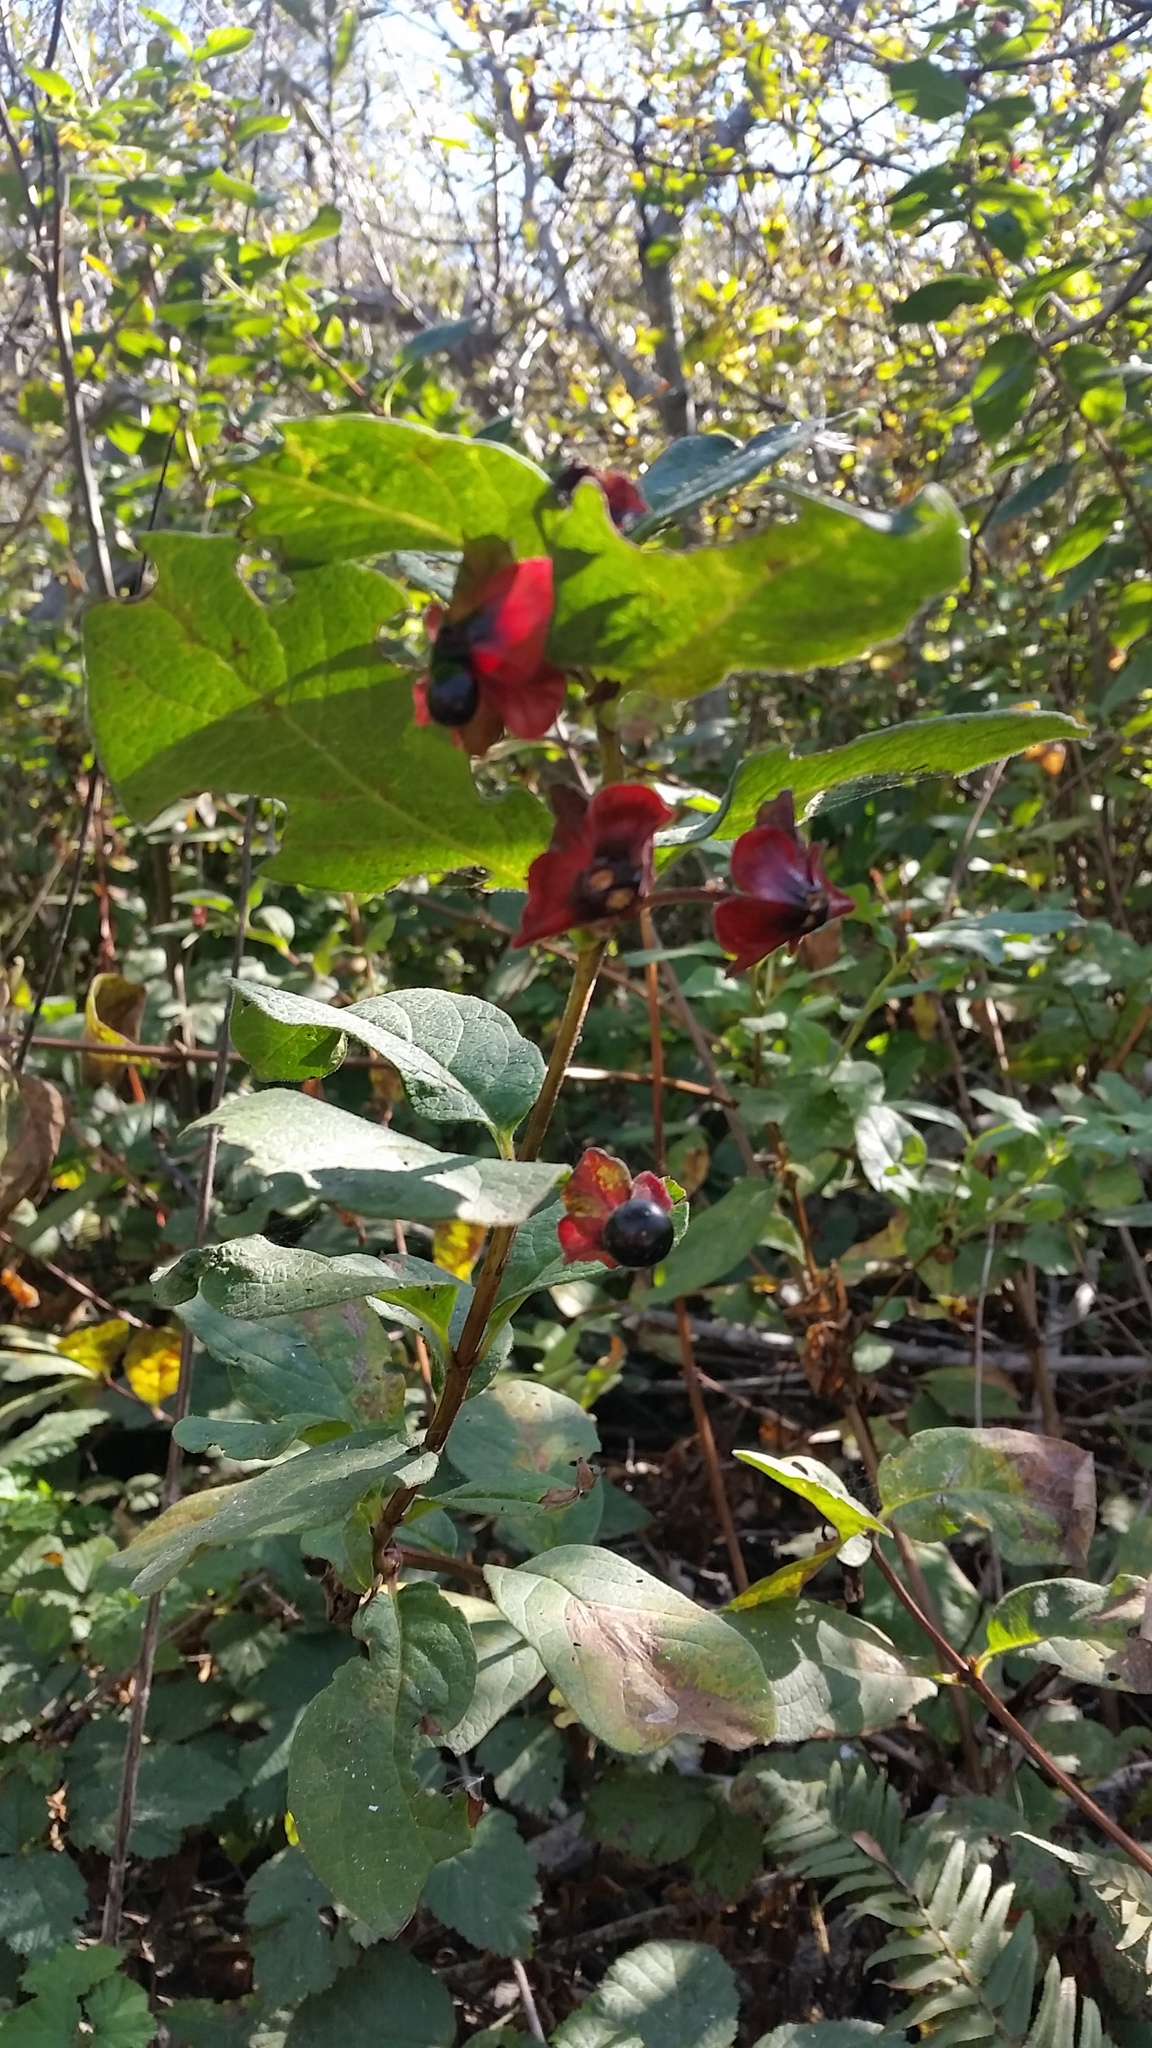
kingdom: Plantae
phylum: Tracheophyta
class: Magnoliopsida
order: Dipsacales
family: Caprifoliaceae
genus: Lonicera
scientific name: Lonicera involucrata
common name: Californian honeysuckle
